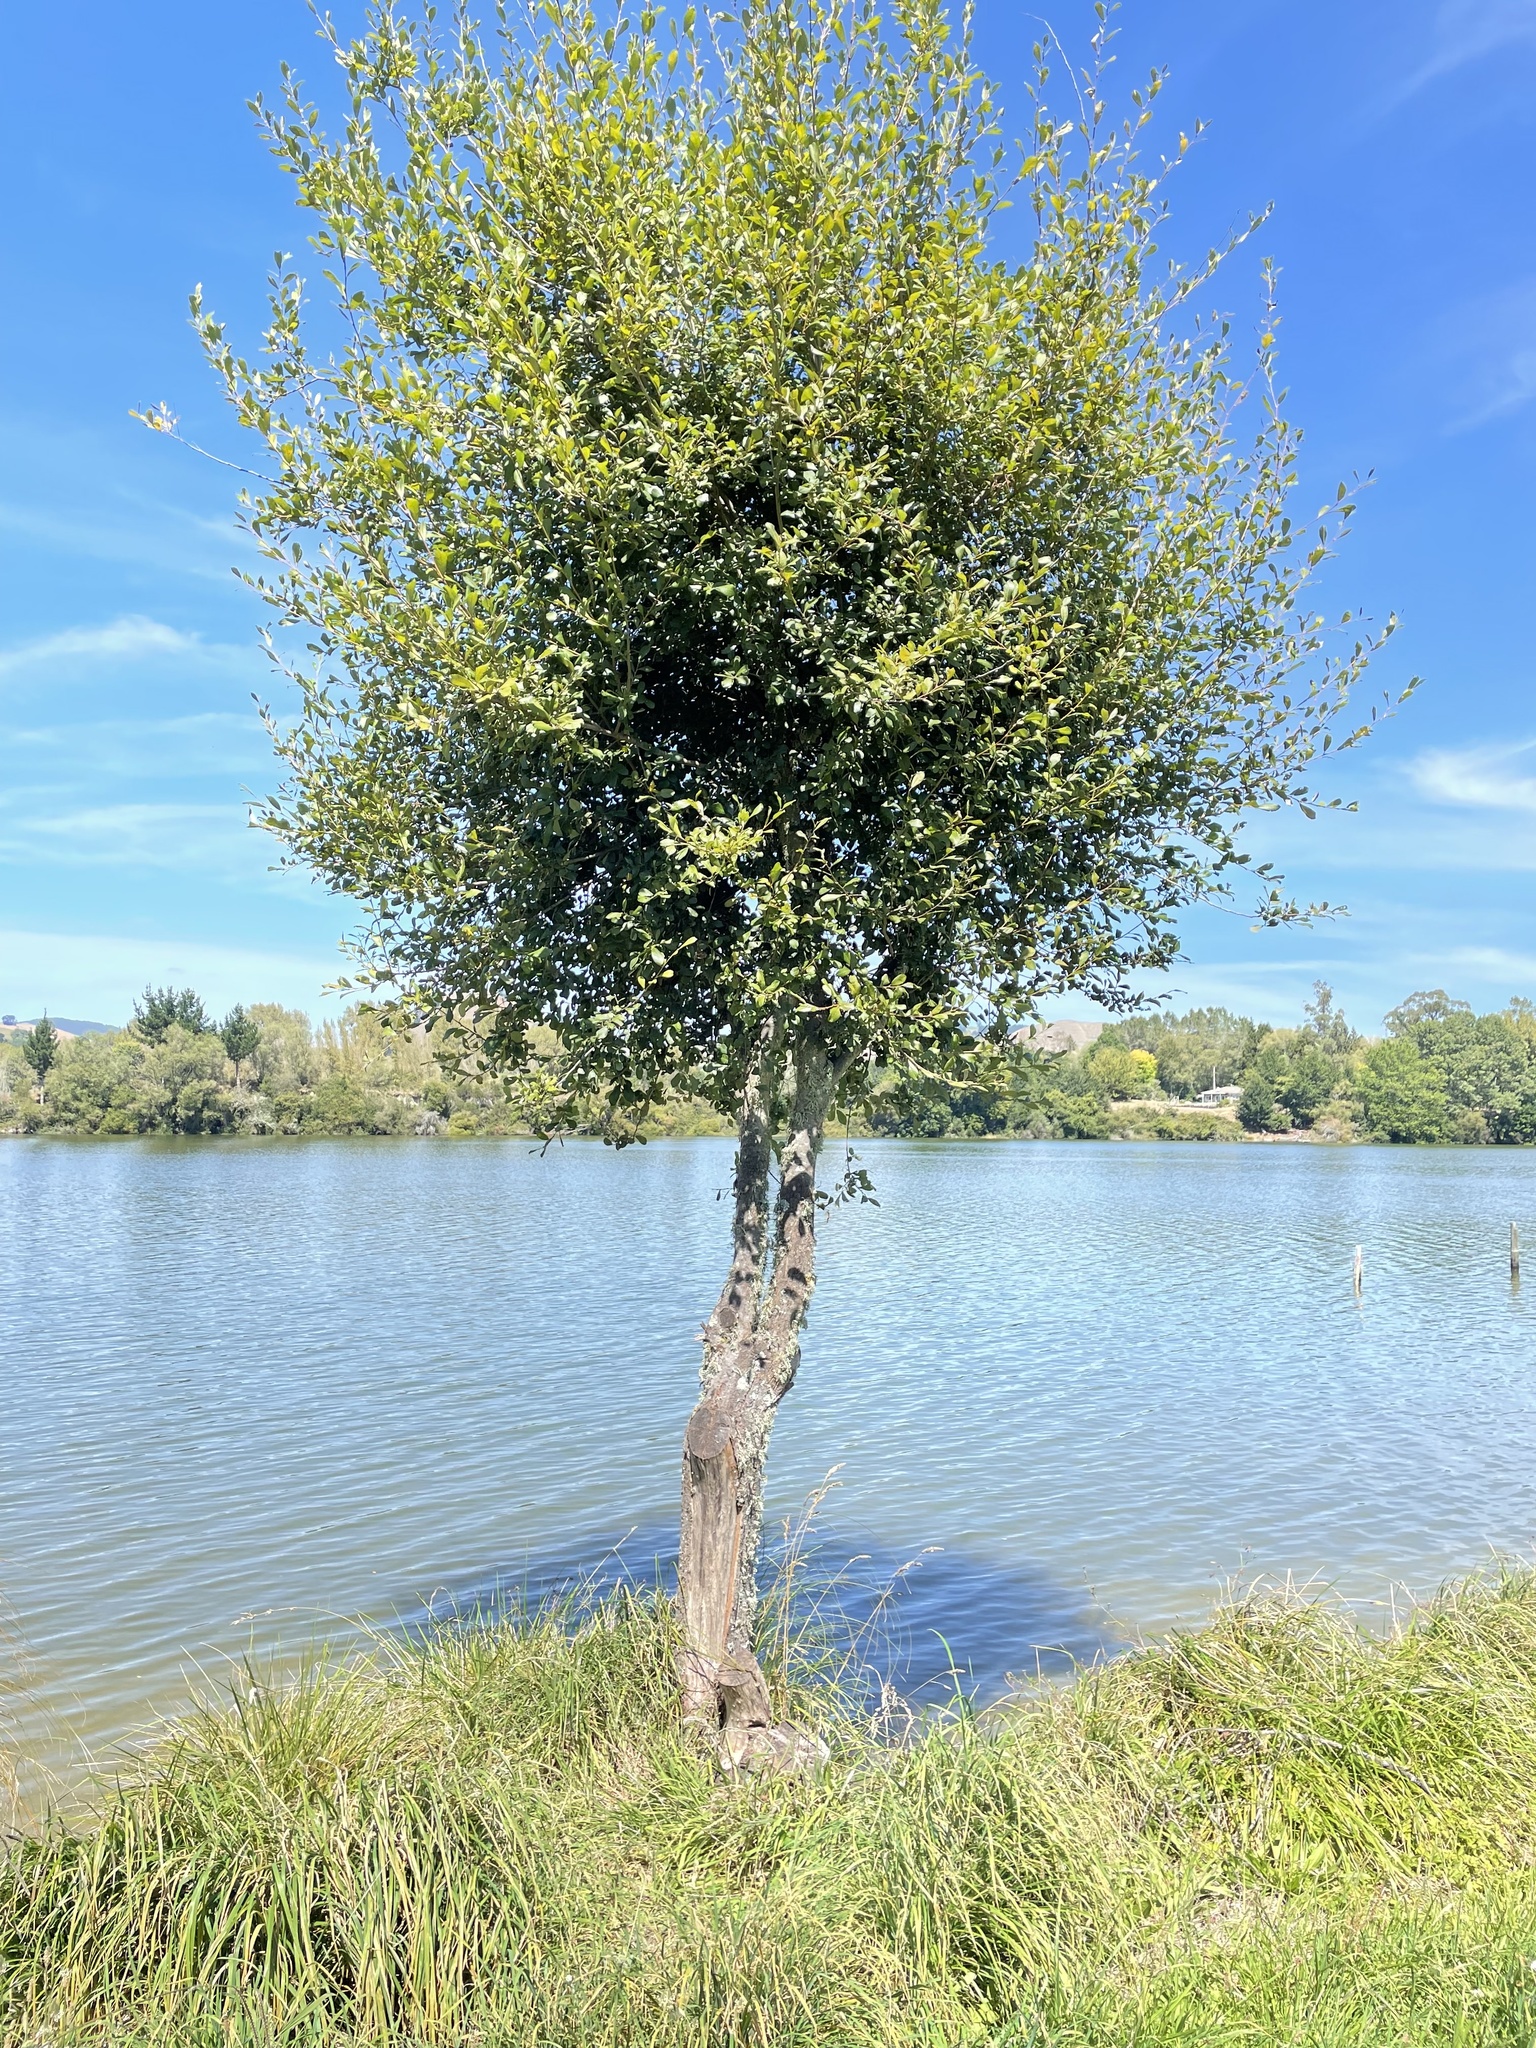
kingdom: Animalia
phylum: Arthropoda
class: Insecta
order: Hymenoptera
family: Braconidae
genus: Pauesia
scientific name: Pauesia nigrovaria
